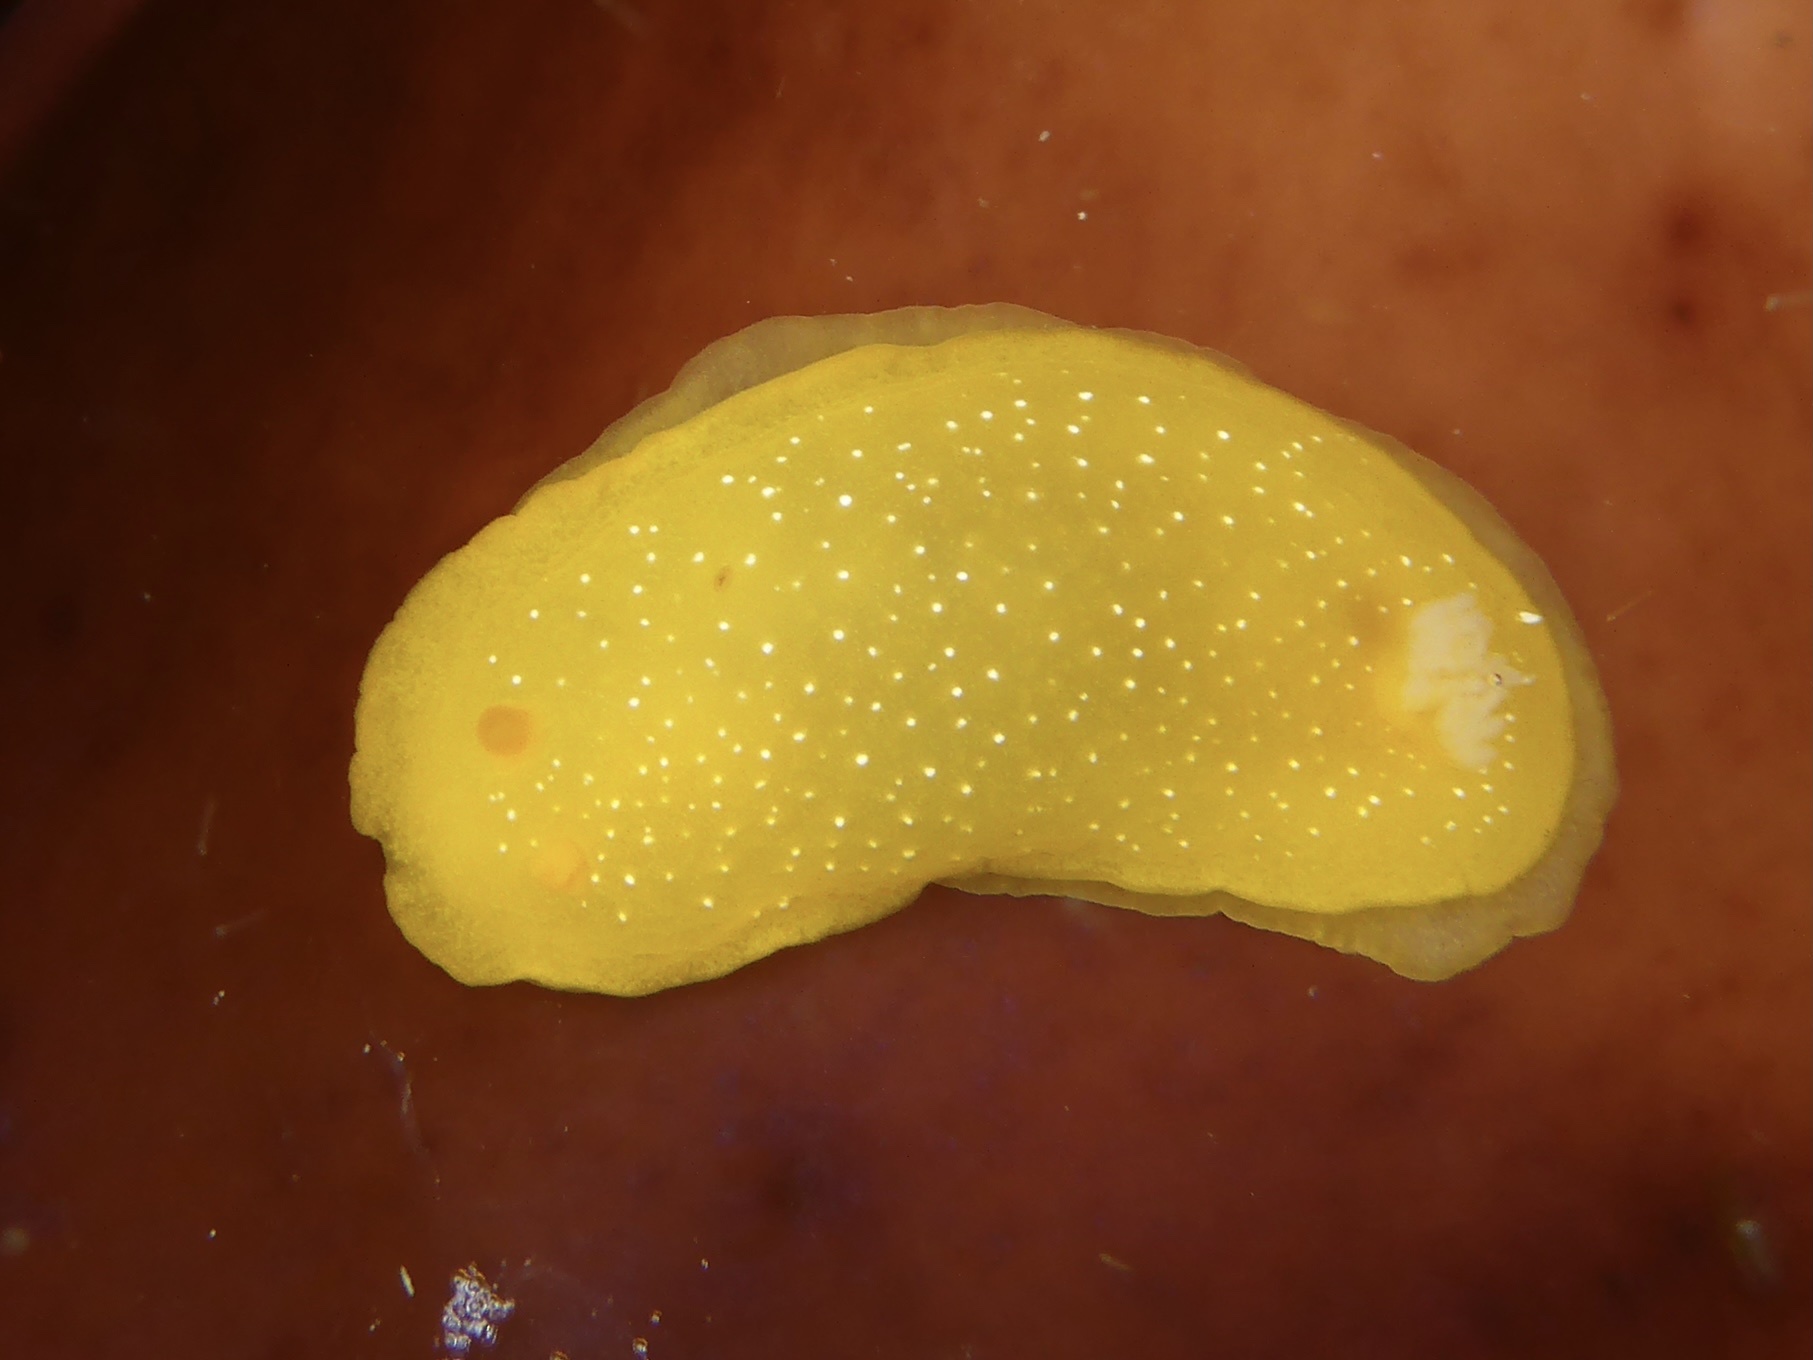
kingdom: Animalia
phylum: Mollusca
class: Gastropoda
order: Nudibranchia
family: Dendrodorididae
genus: Doriopsilla
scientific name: Doriopsilla fulva
